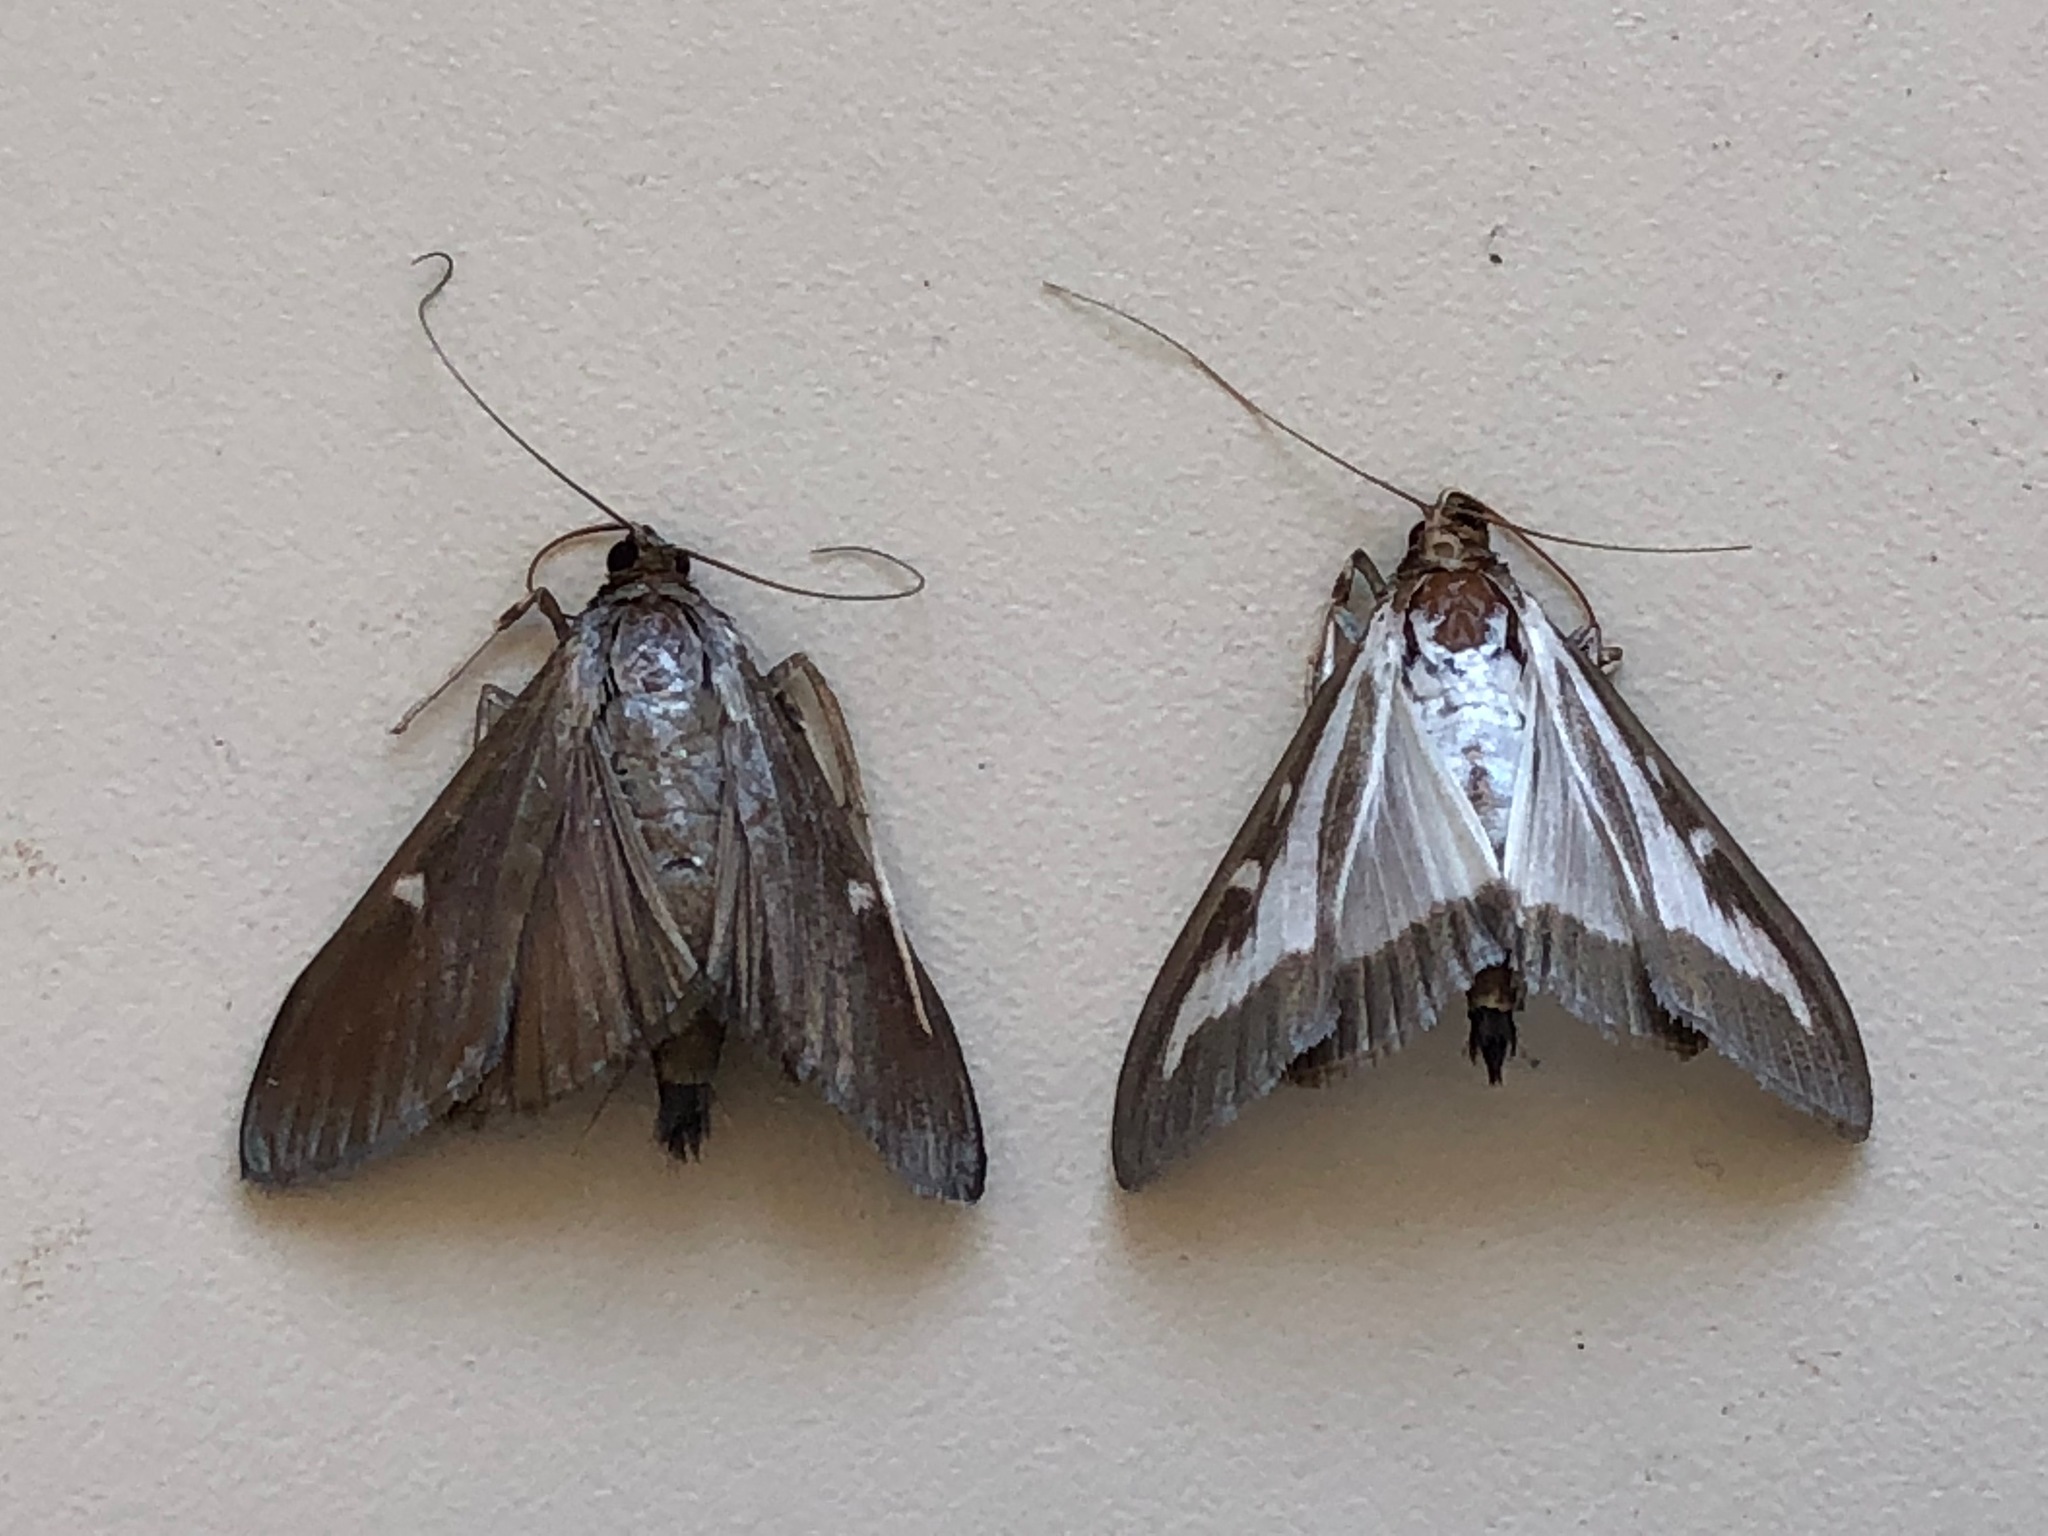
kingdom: Animalia
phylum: Arthropoda
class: Insecta
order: Lepidoptera
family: Crambidae
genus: Cydalima
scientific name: Cydalima perspectalis
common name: Box tree moth
